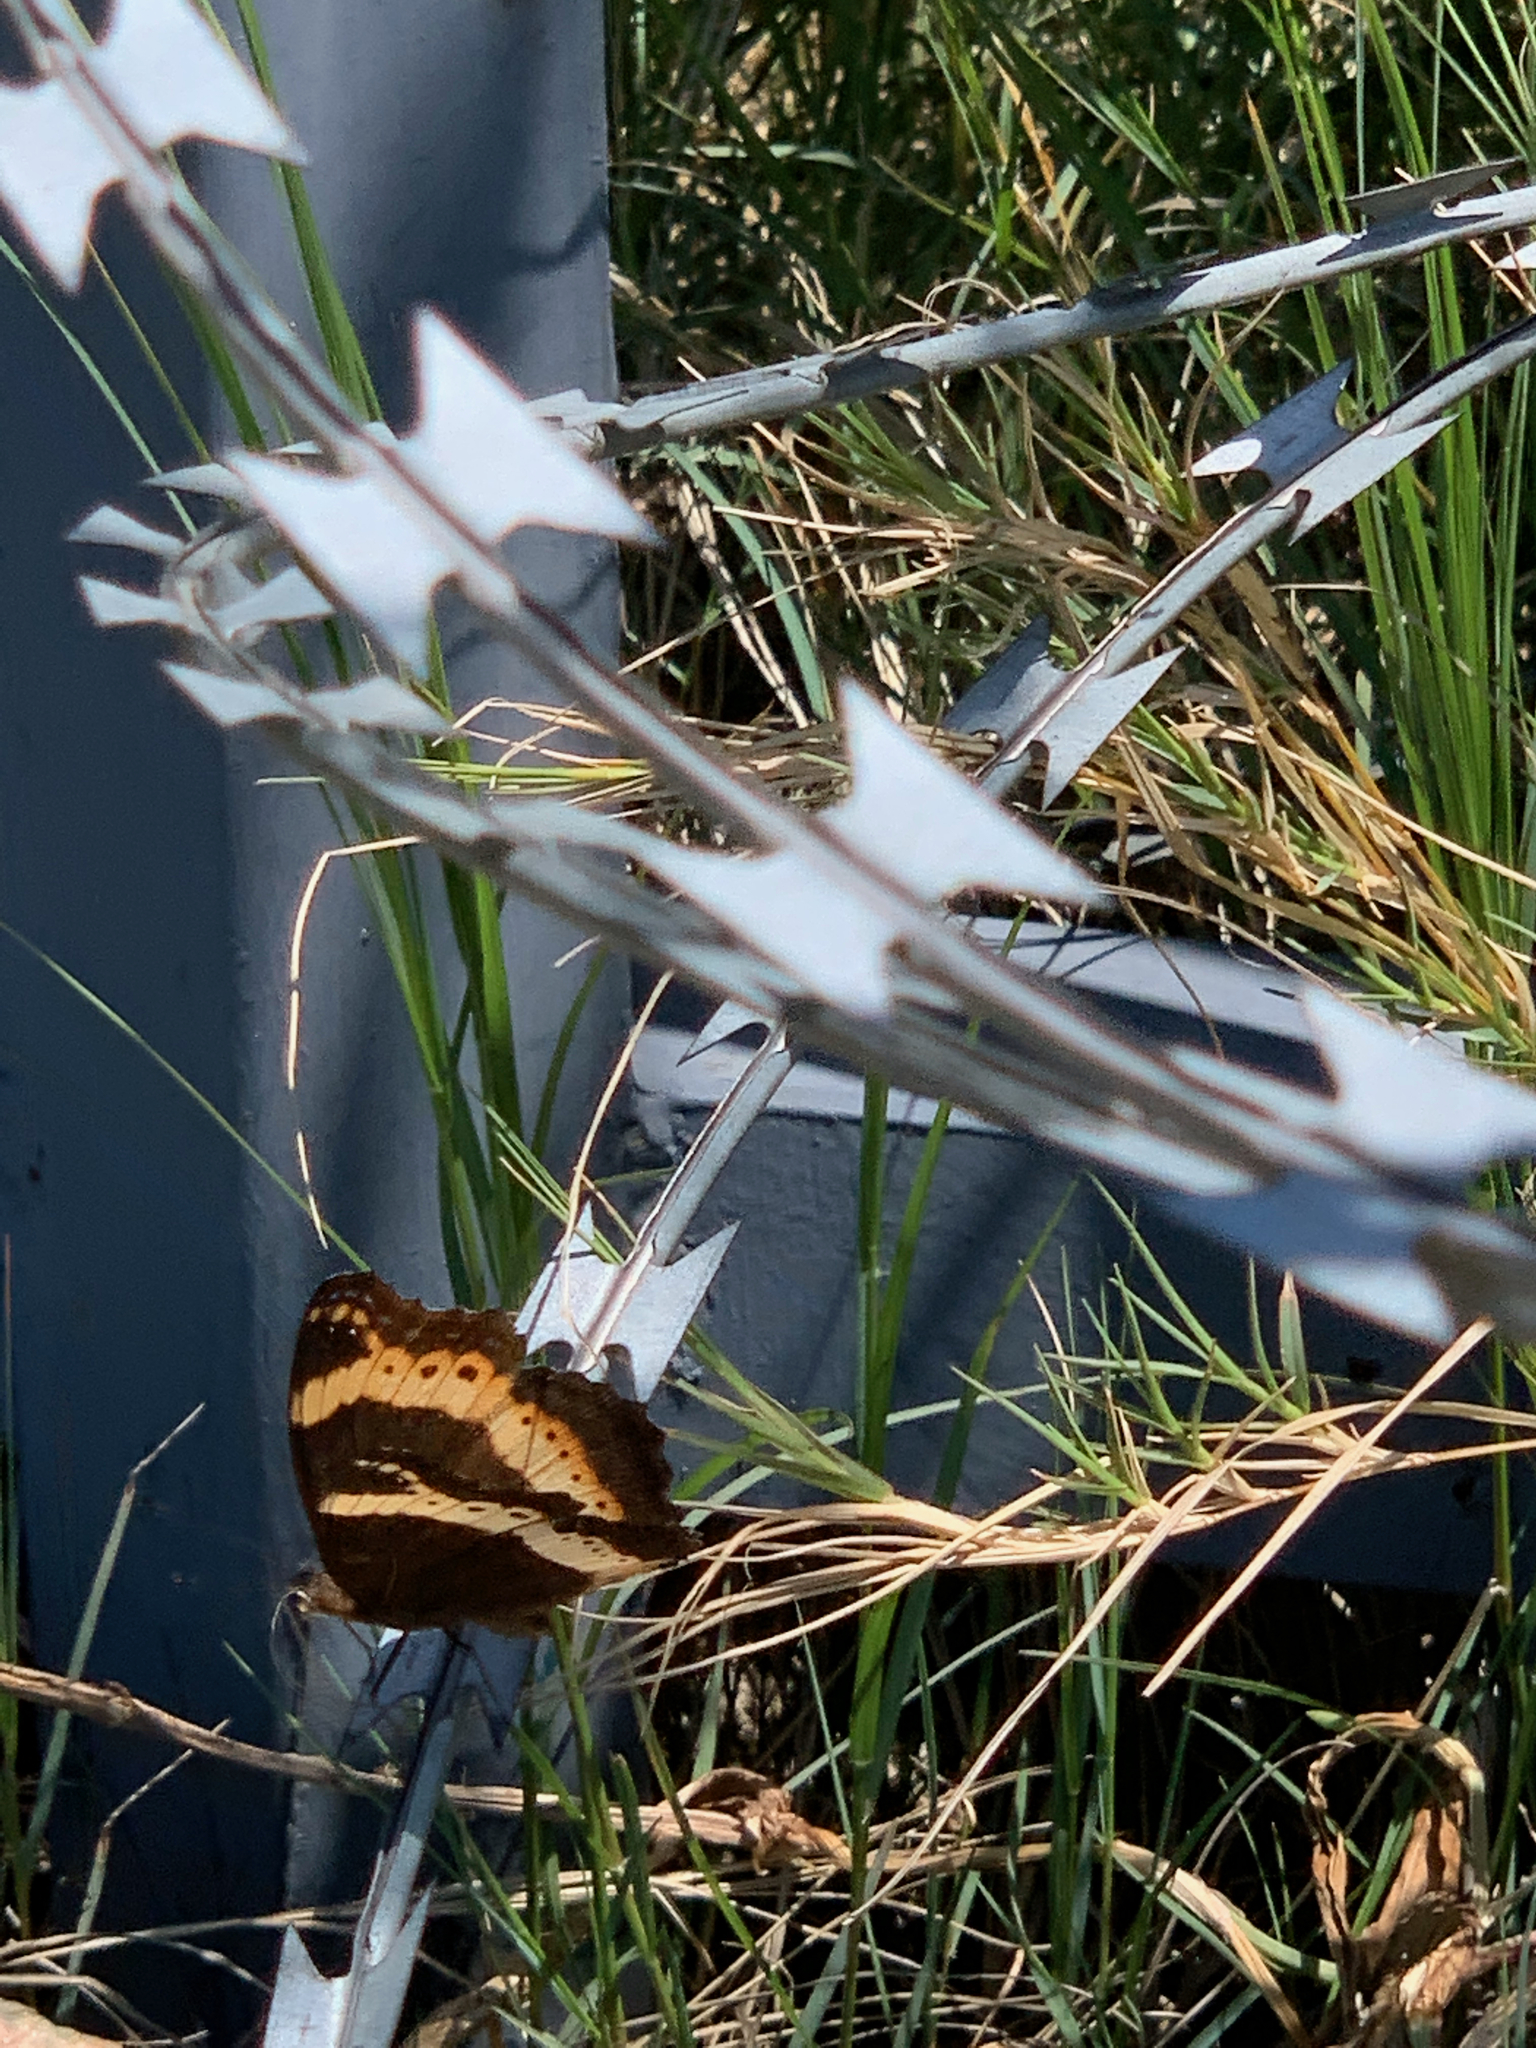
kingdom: Animalia
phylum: Arthropoda
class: Insecta
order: Lepidoptera
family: Nymphalidae
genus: Junonia
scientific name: Junonia archesia
